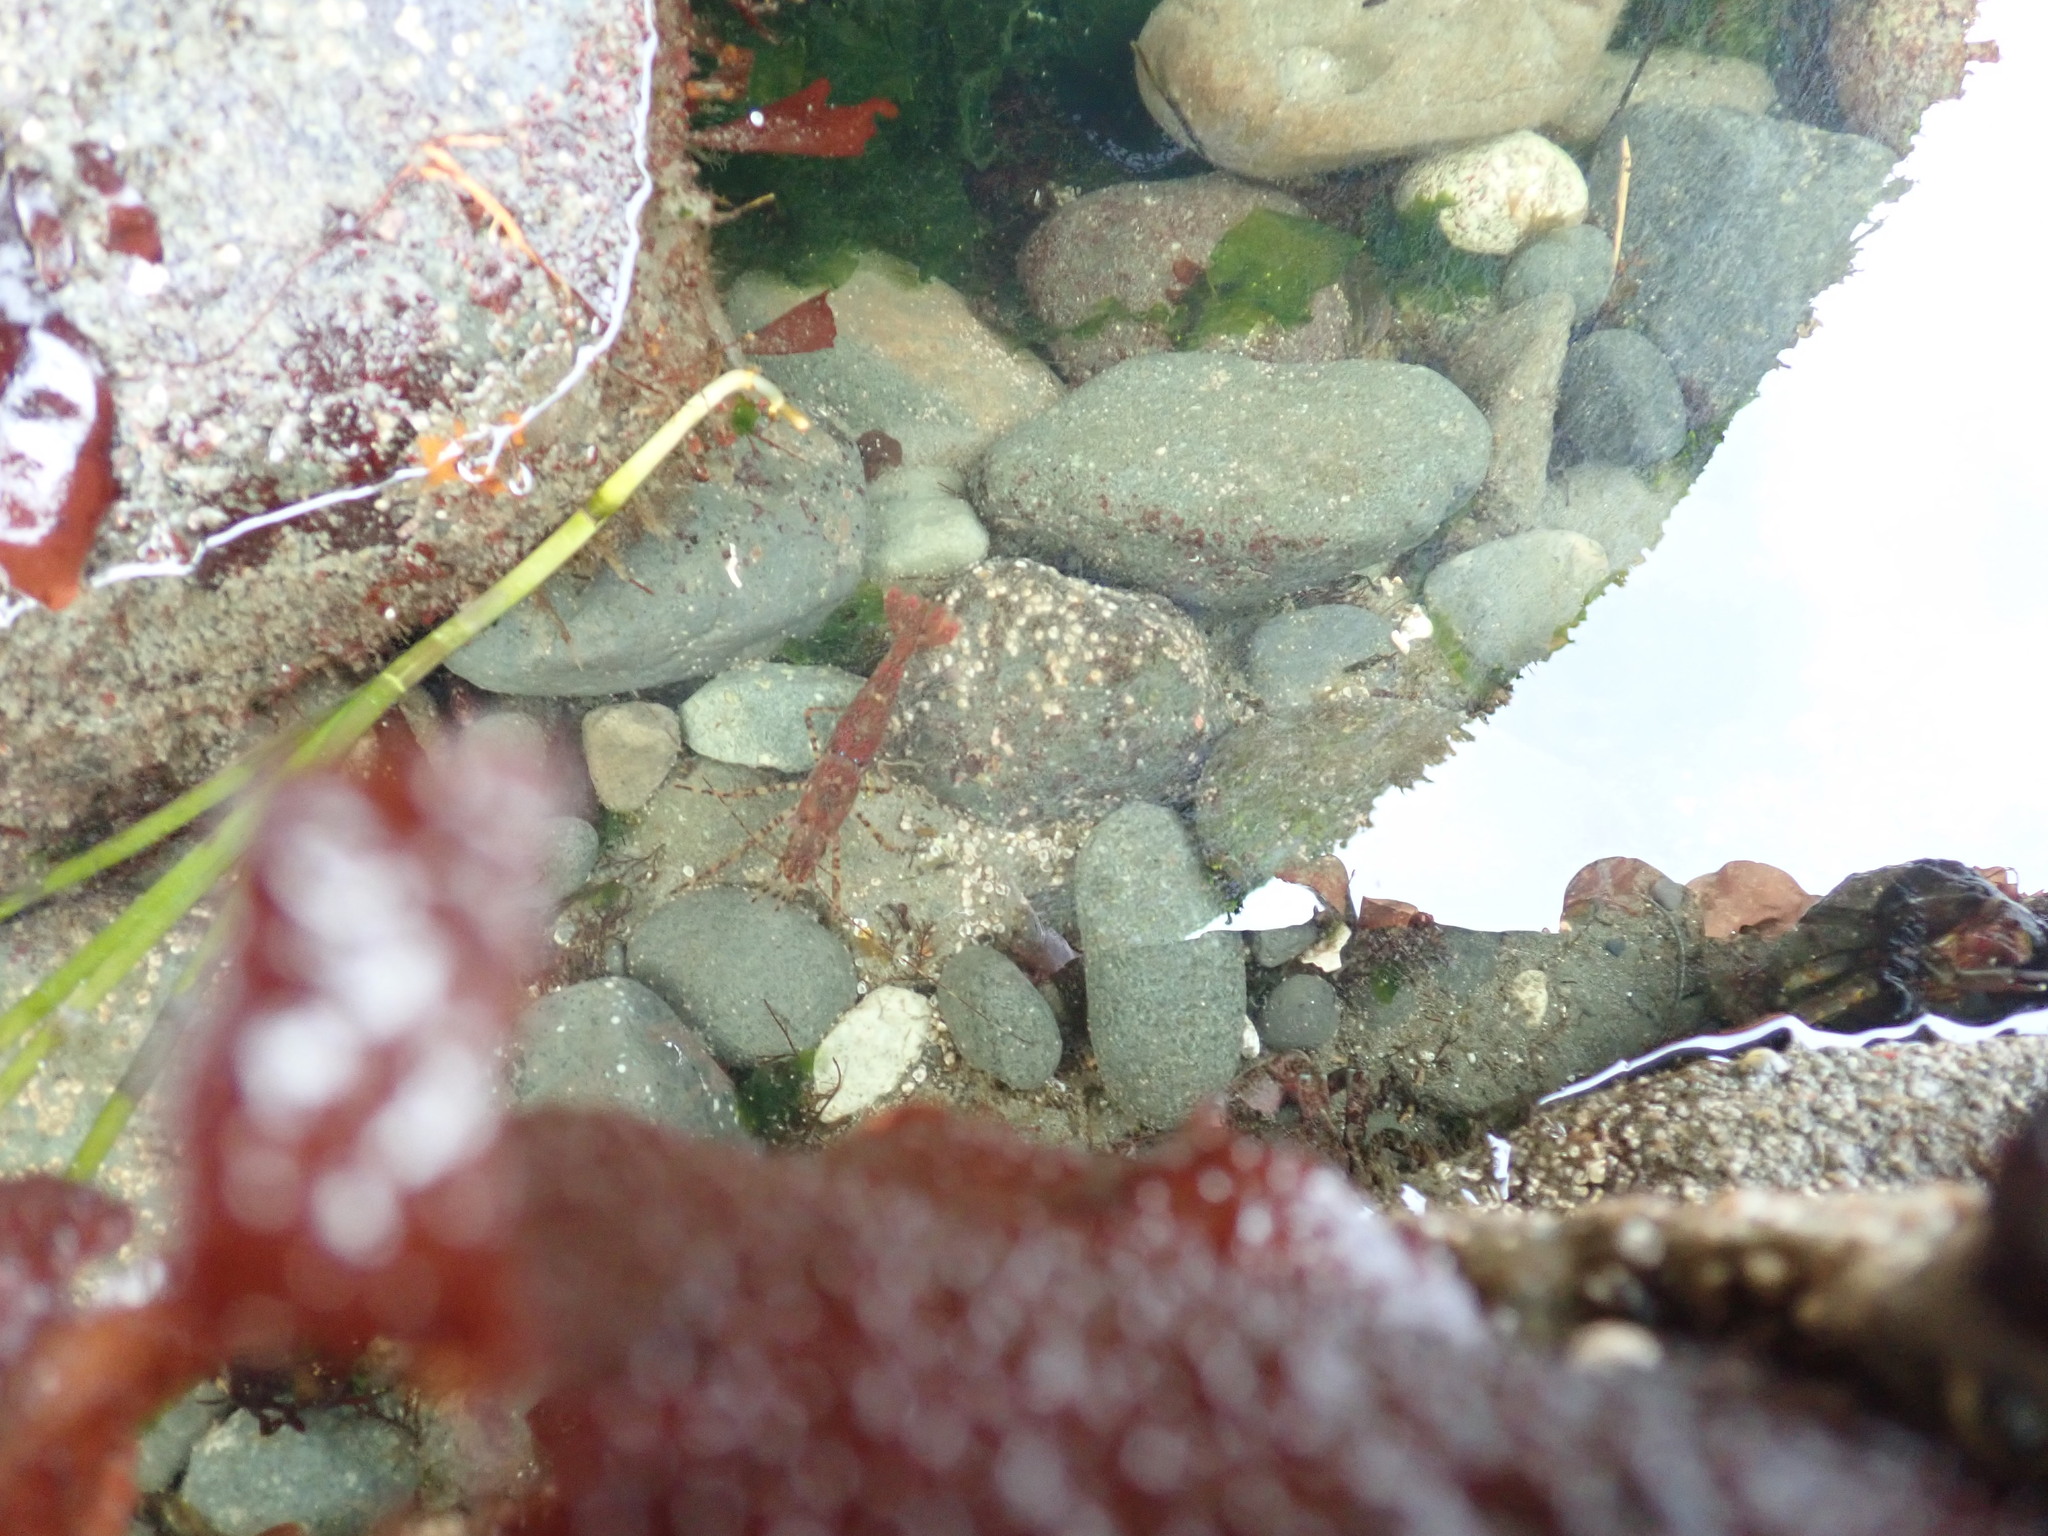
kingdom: Animalia
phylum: Arthropoda
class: Malacostraca
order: Decapoda
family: Pandalidae
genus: Pandalus
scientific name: Pandalus danae
